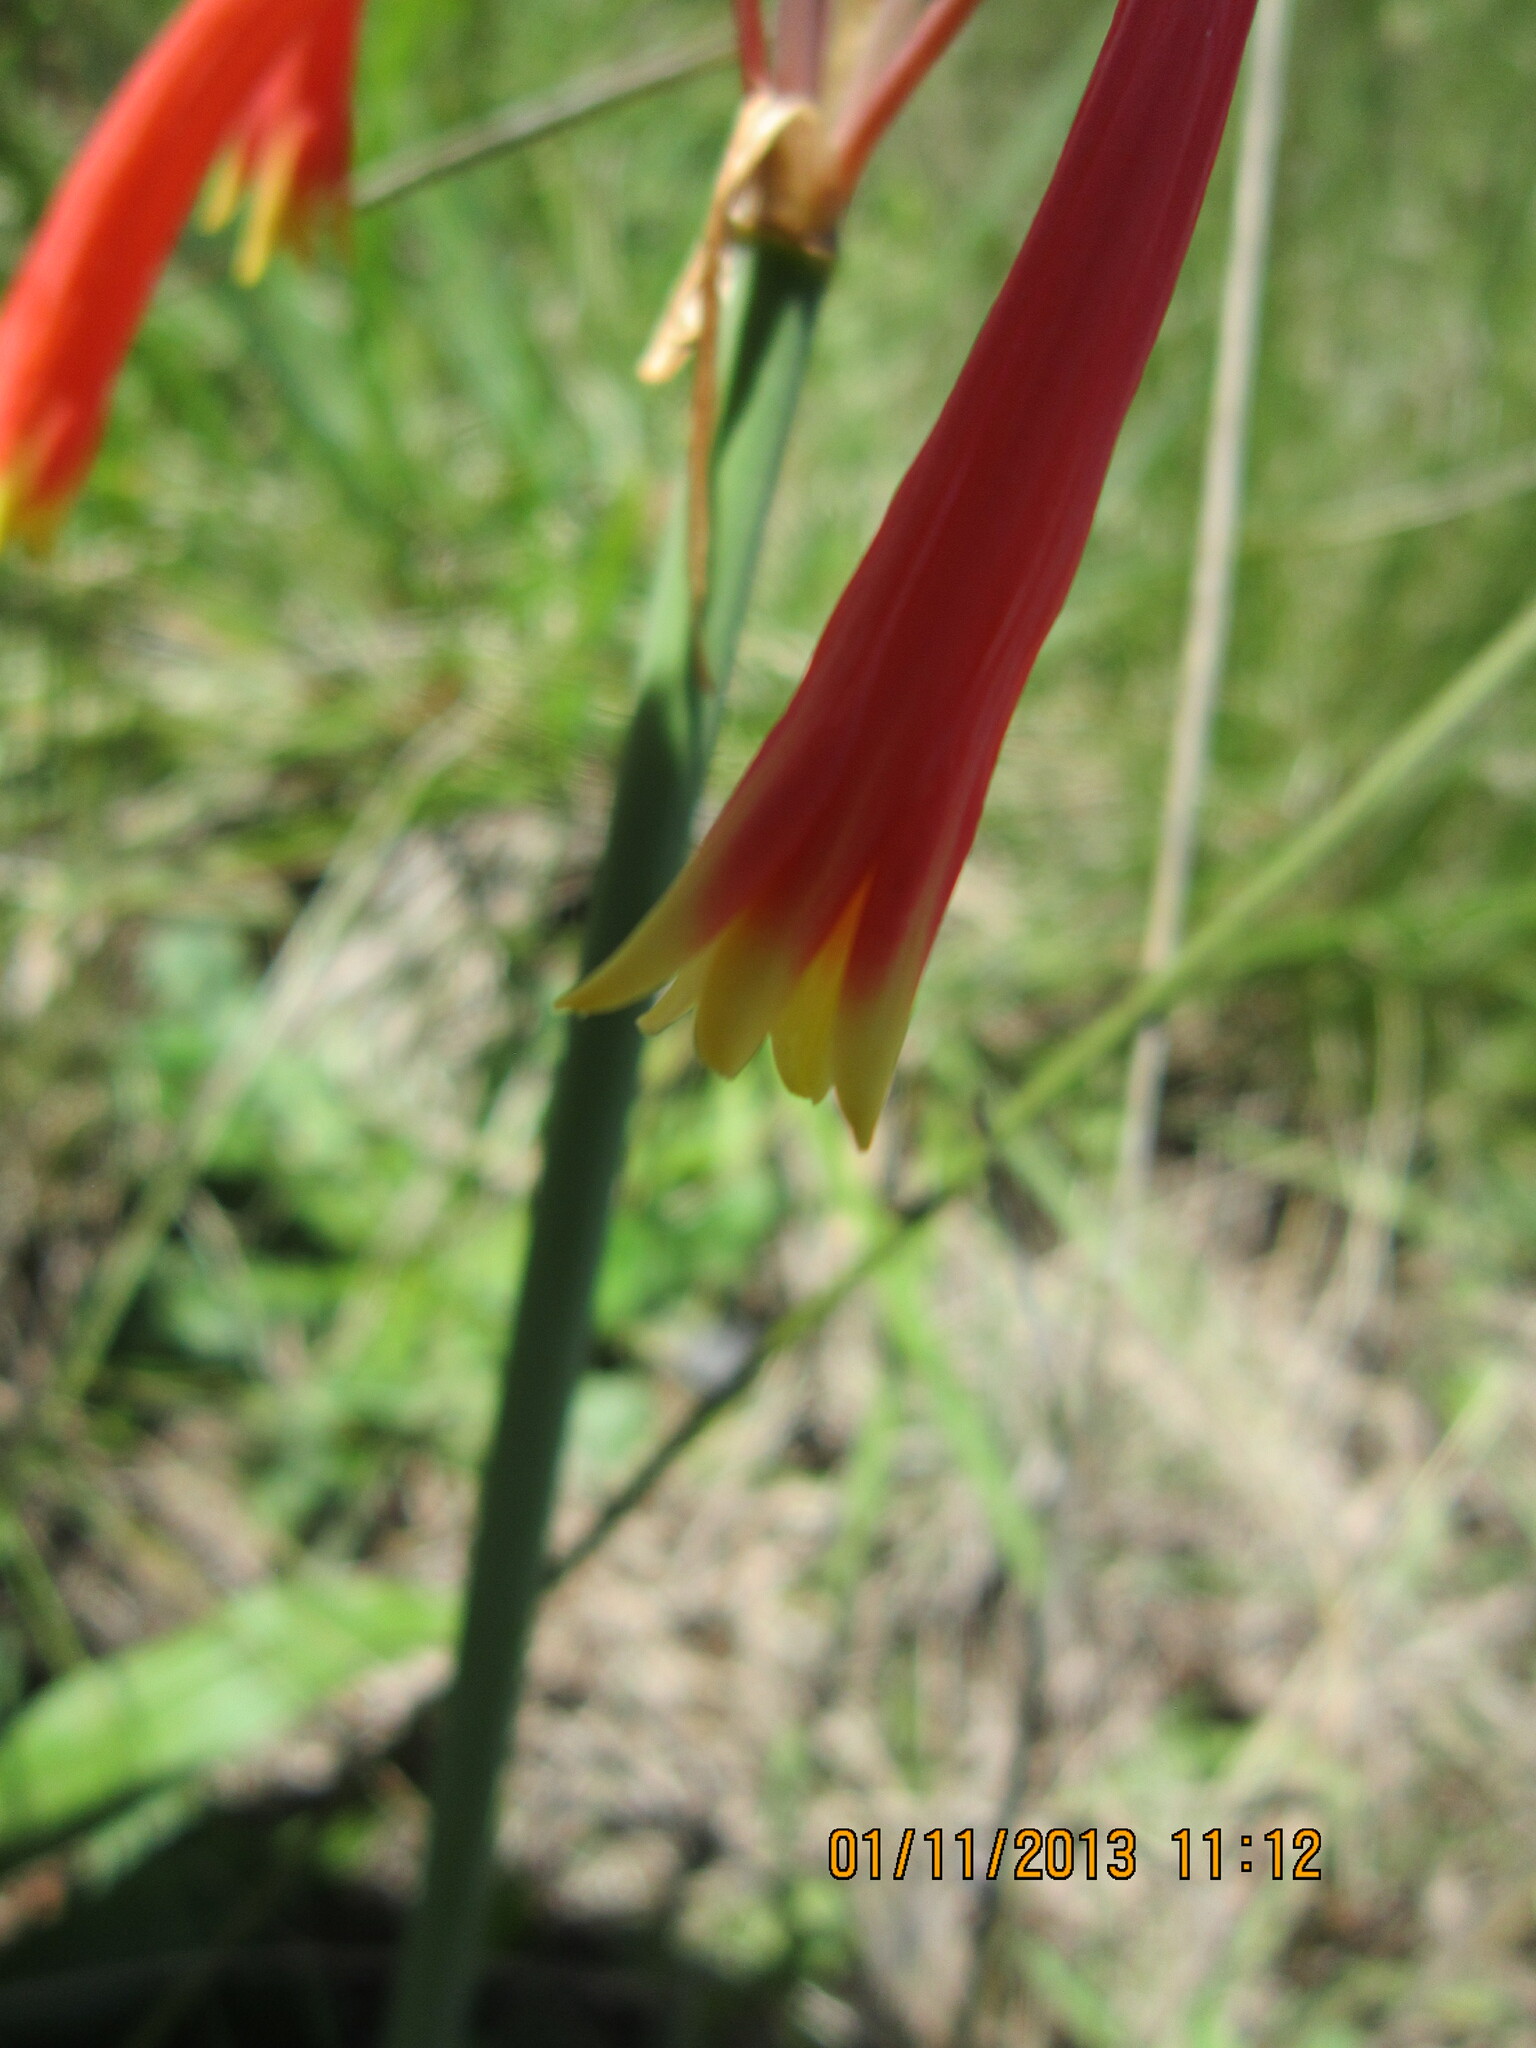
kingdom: Plantae
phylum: Tracheophyta
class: Liliopsida
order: Asparagales
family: Amaryllidaceae
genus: Cyrtanthus
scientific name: Cyrtanthus tuckii
